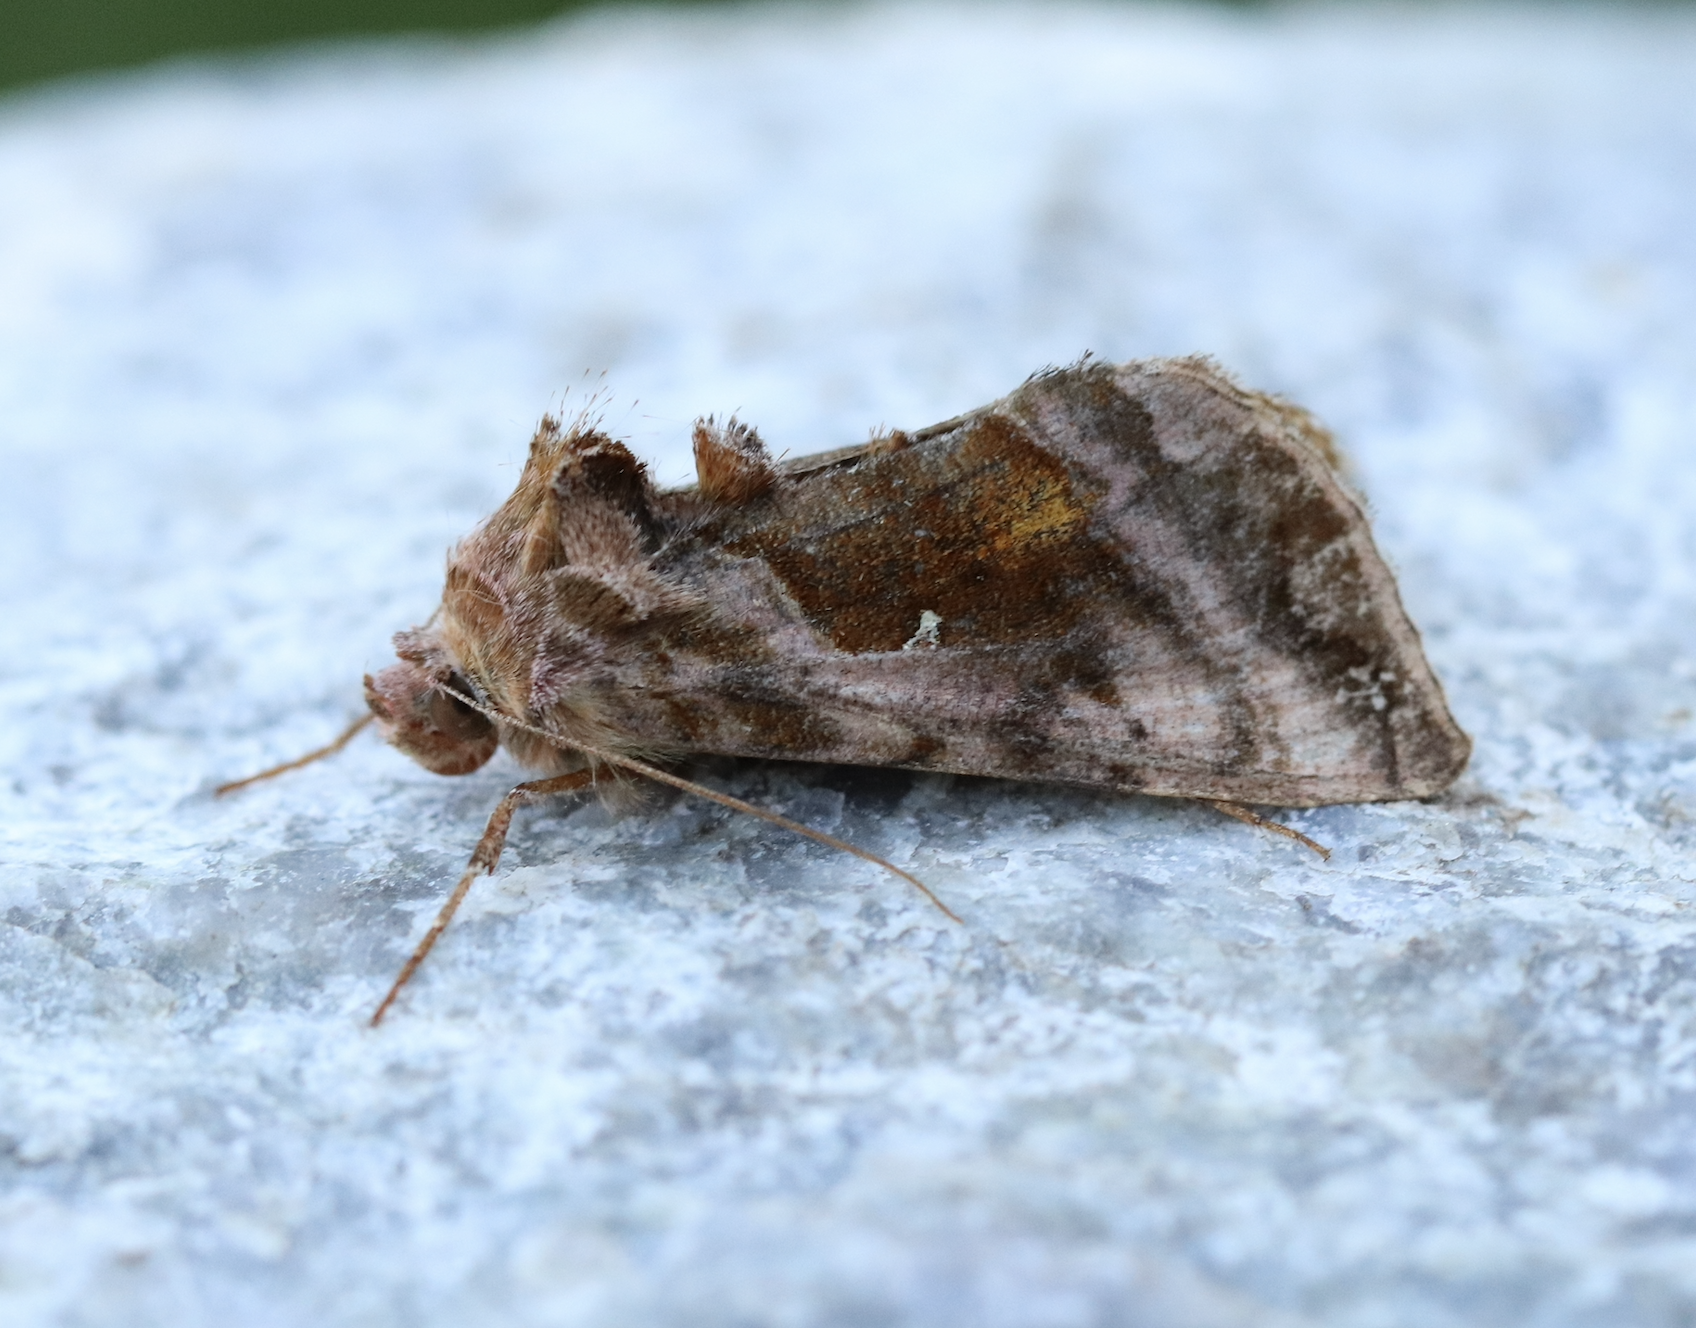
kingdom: Animalia
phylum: Arthropoda
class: Insecta
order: Lepidoptera
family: Noctuidae
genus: Autographa
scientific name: Autographa jota
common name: Plain golden y
